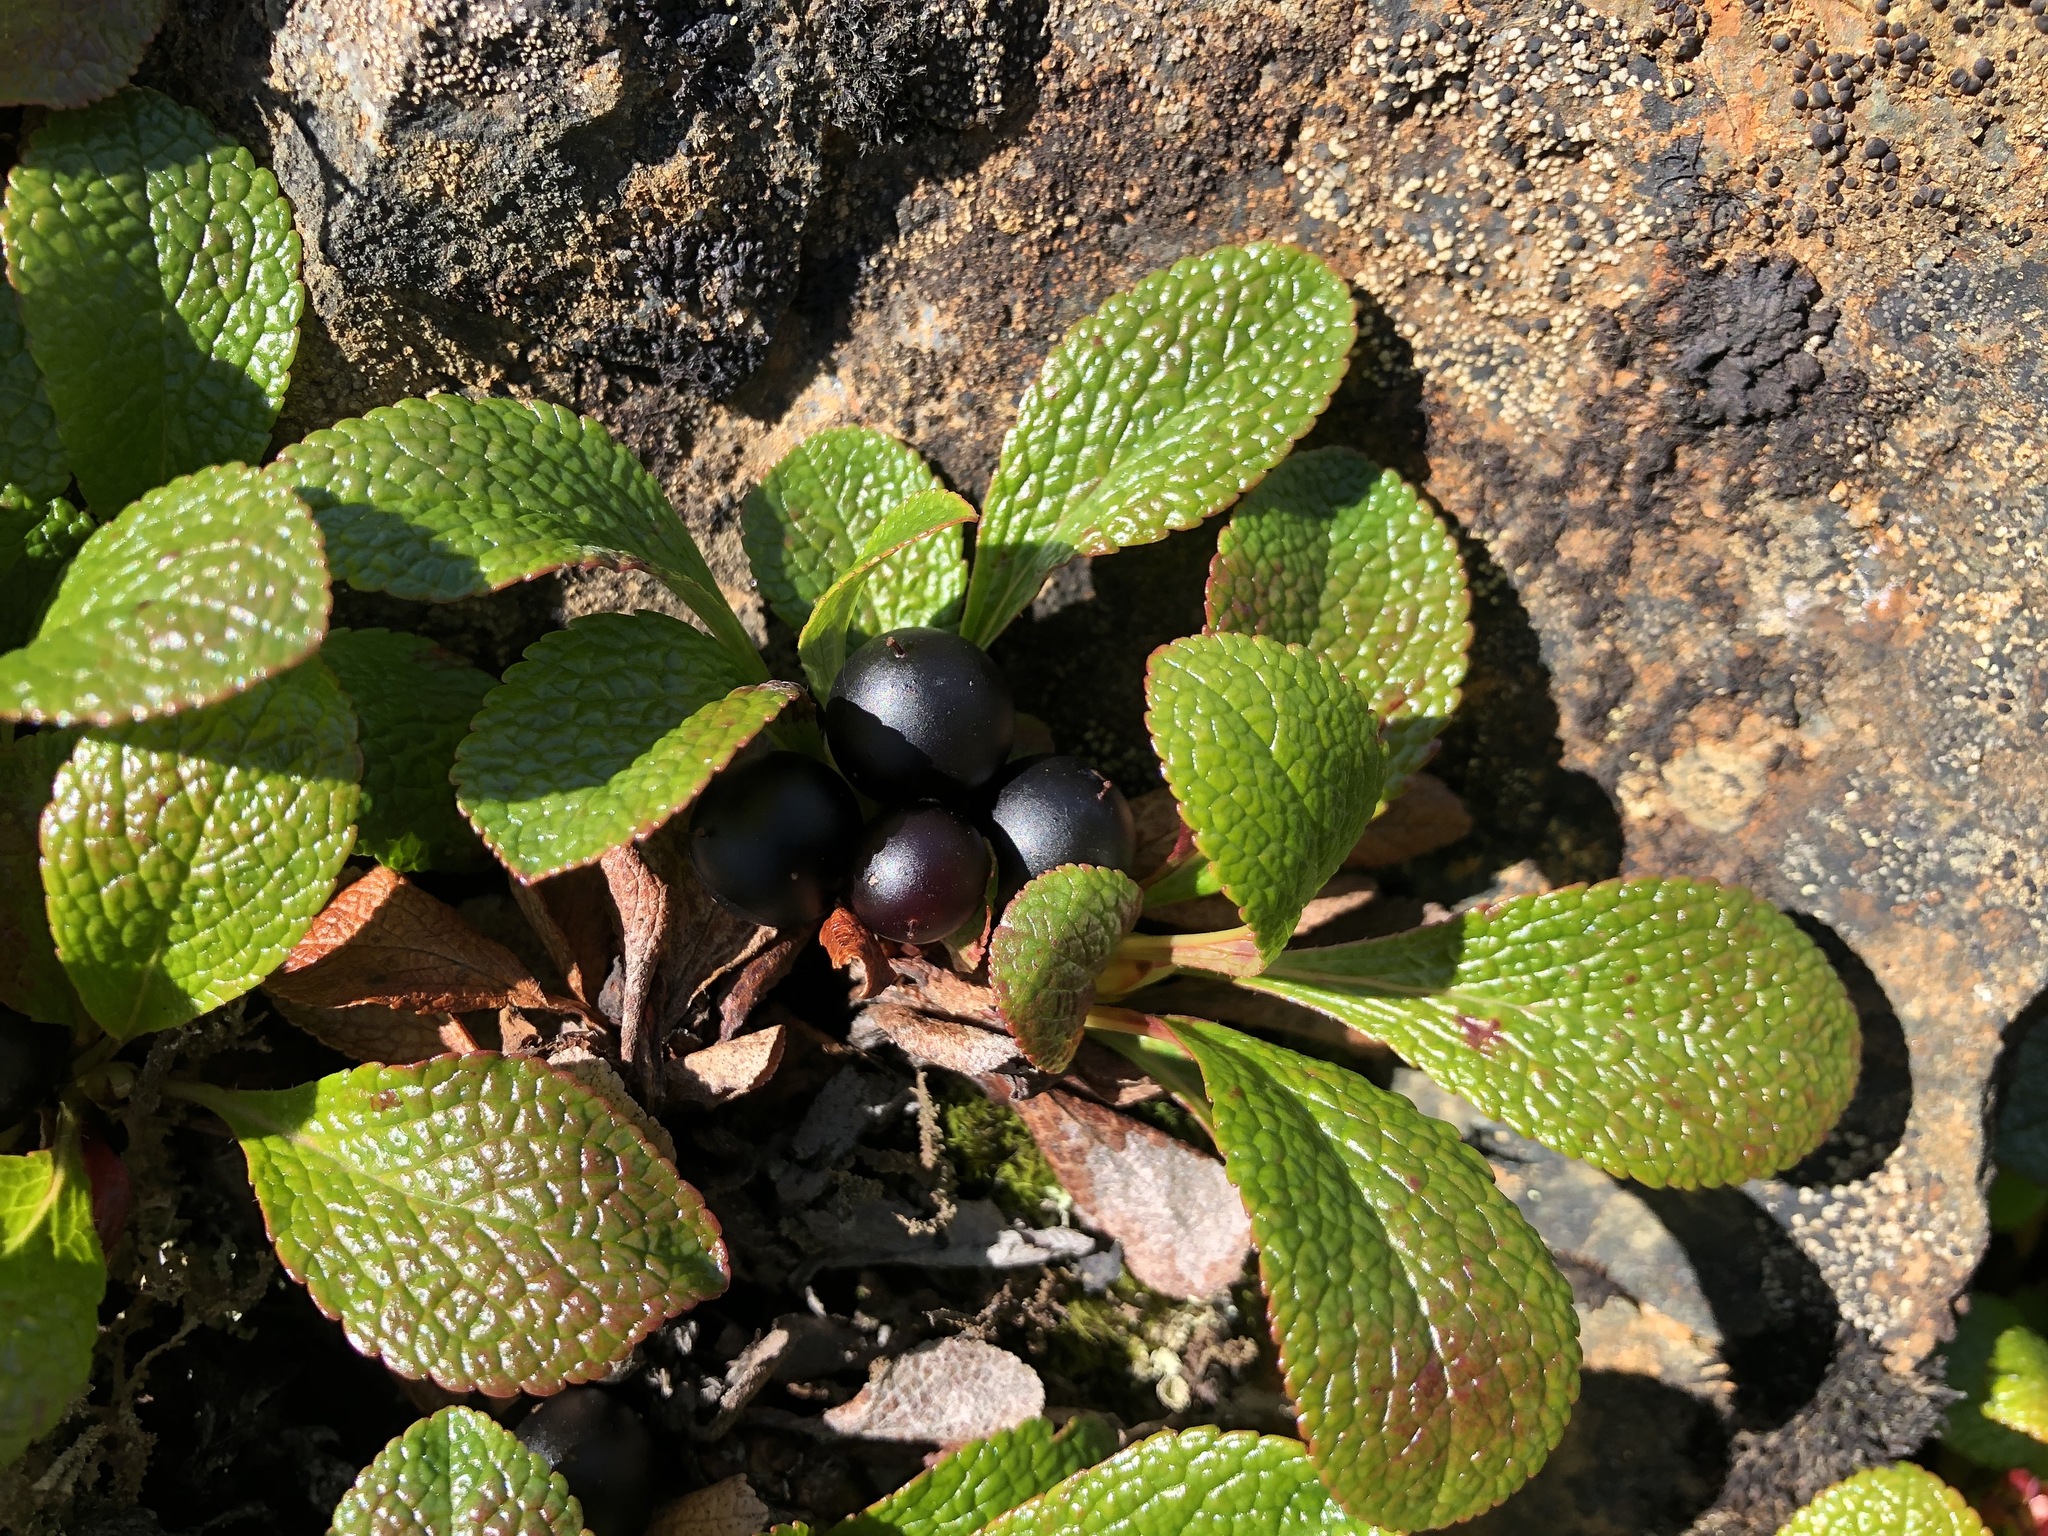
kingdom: Plantae
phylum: Tracheophyta
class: Magnoliopsida
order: Ericales
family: Ericaceae
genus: Arctostaphylos
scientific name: Arctostaphylos alpinus
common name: Alpine bearberry
